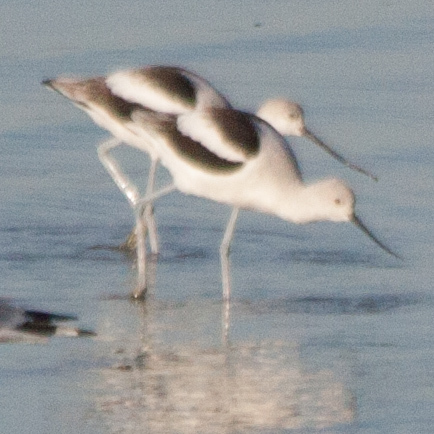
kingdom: Animalia
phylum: Chordata
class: Aves
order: Charadriiformes
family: Recurvirostridae
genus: Recurvirostra
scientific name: Recurvirostra americana
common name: American avocet
